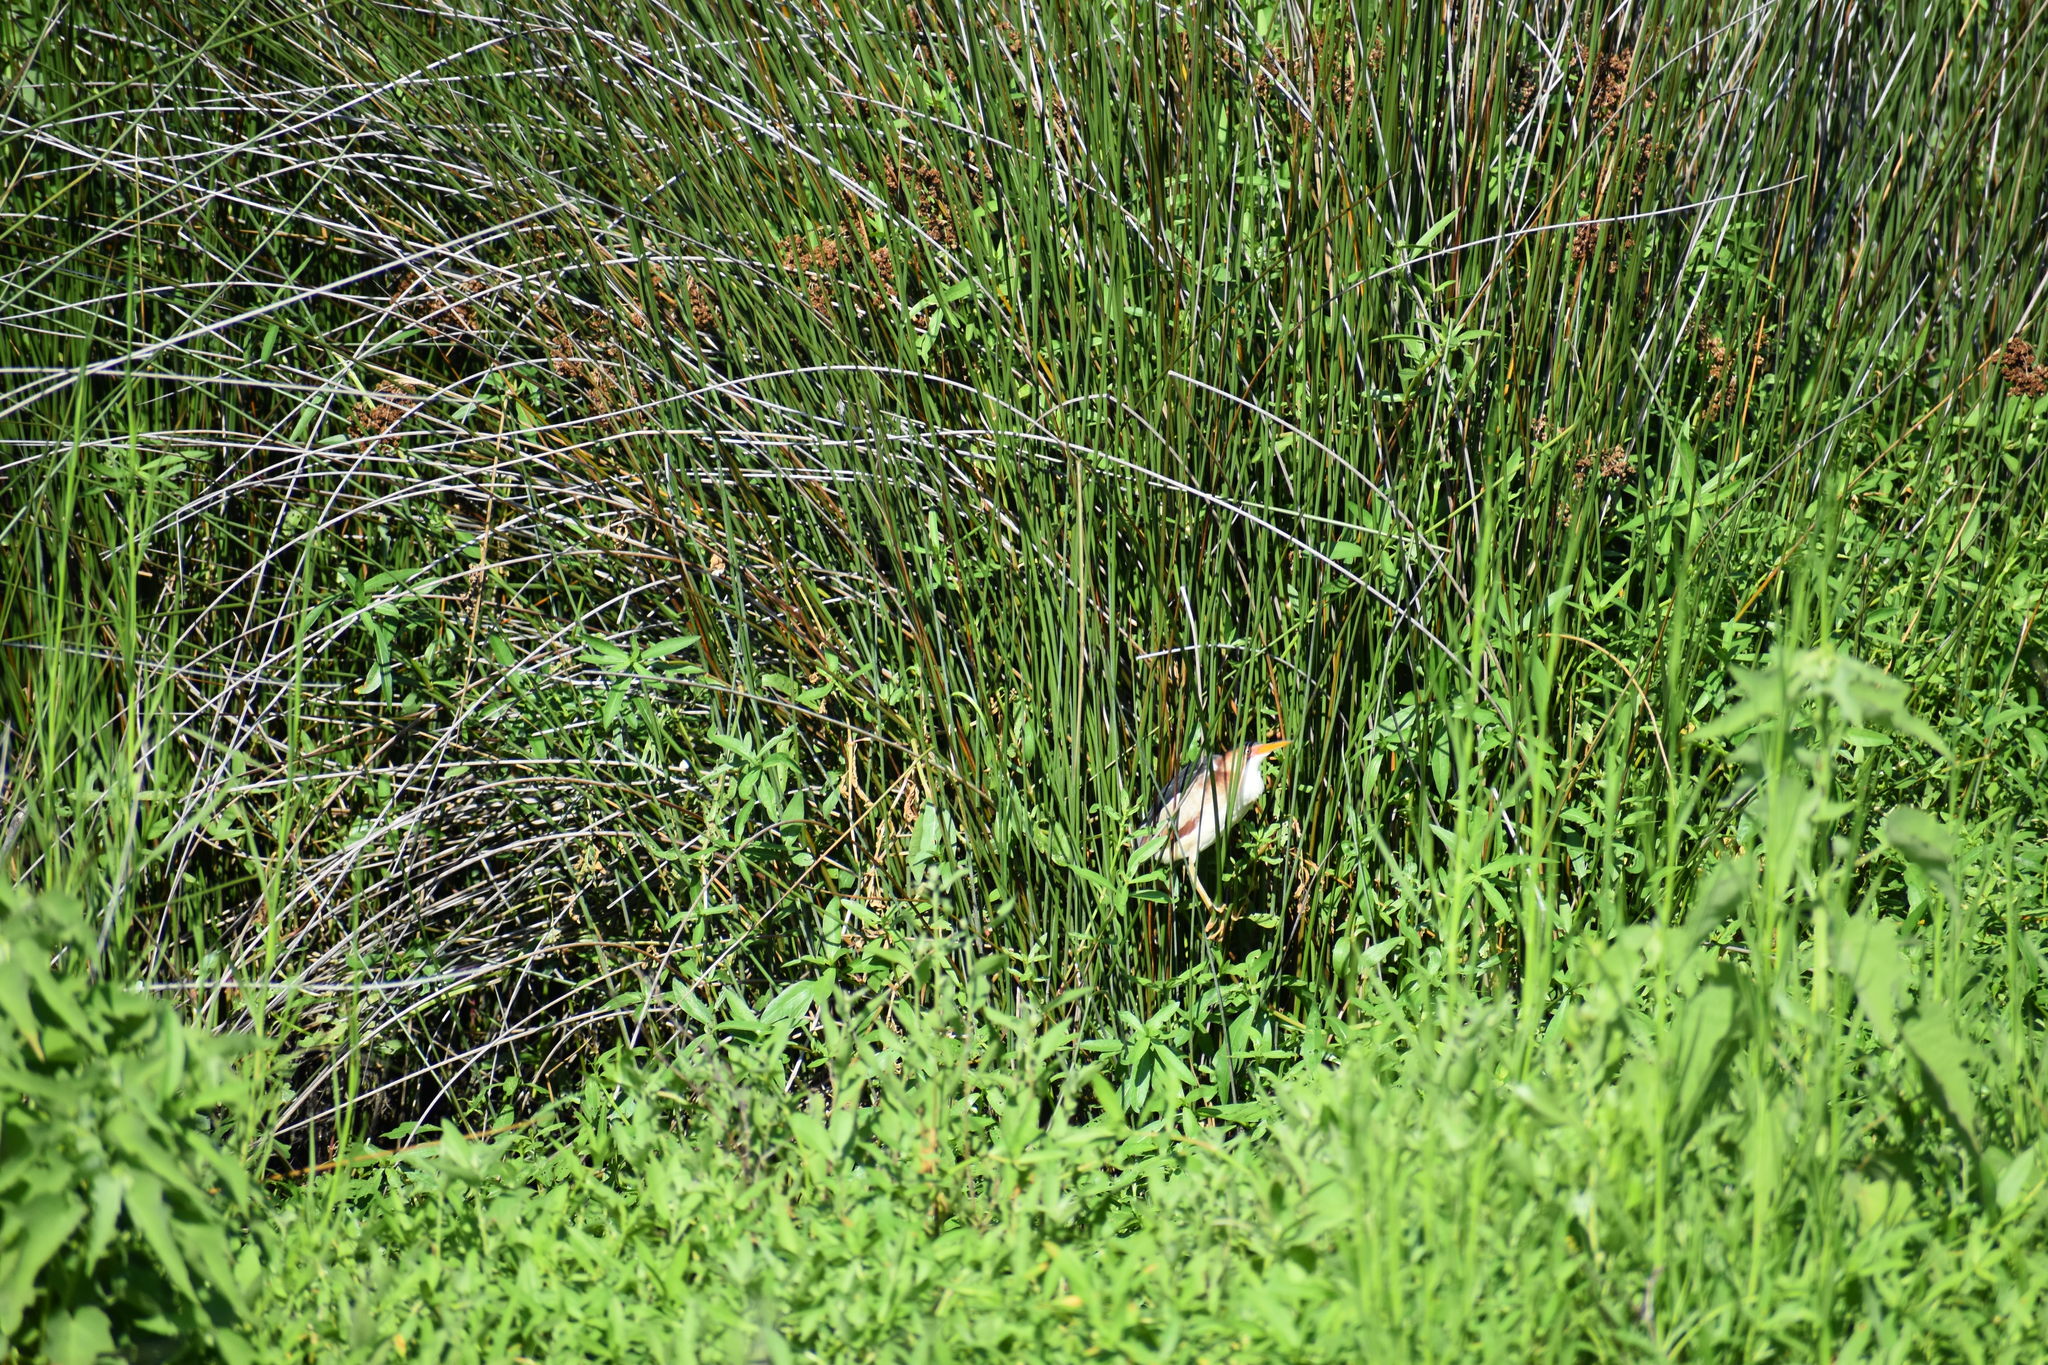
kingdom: Animalia
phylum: Chordata
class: Aves
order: Pelecaniformes
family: Ardeidae
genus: Ixobrychus
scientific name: Ixobrychus exilis
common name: Least bittern
